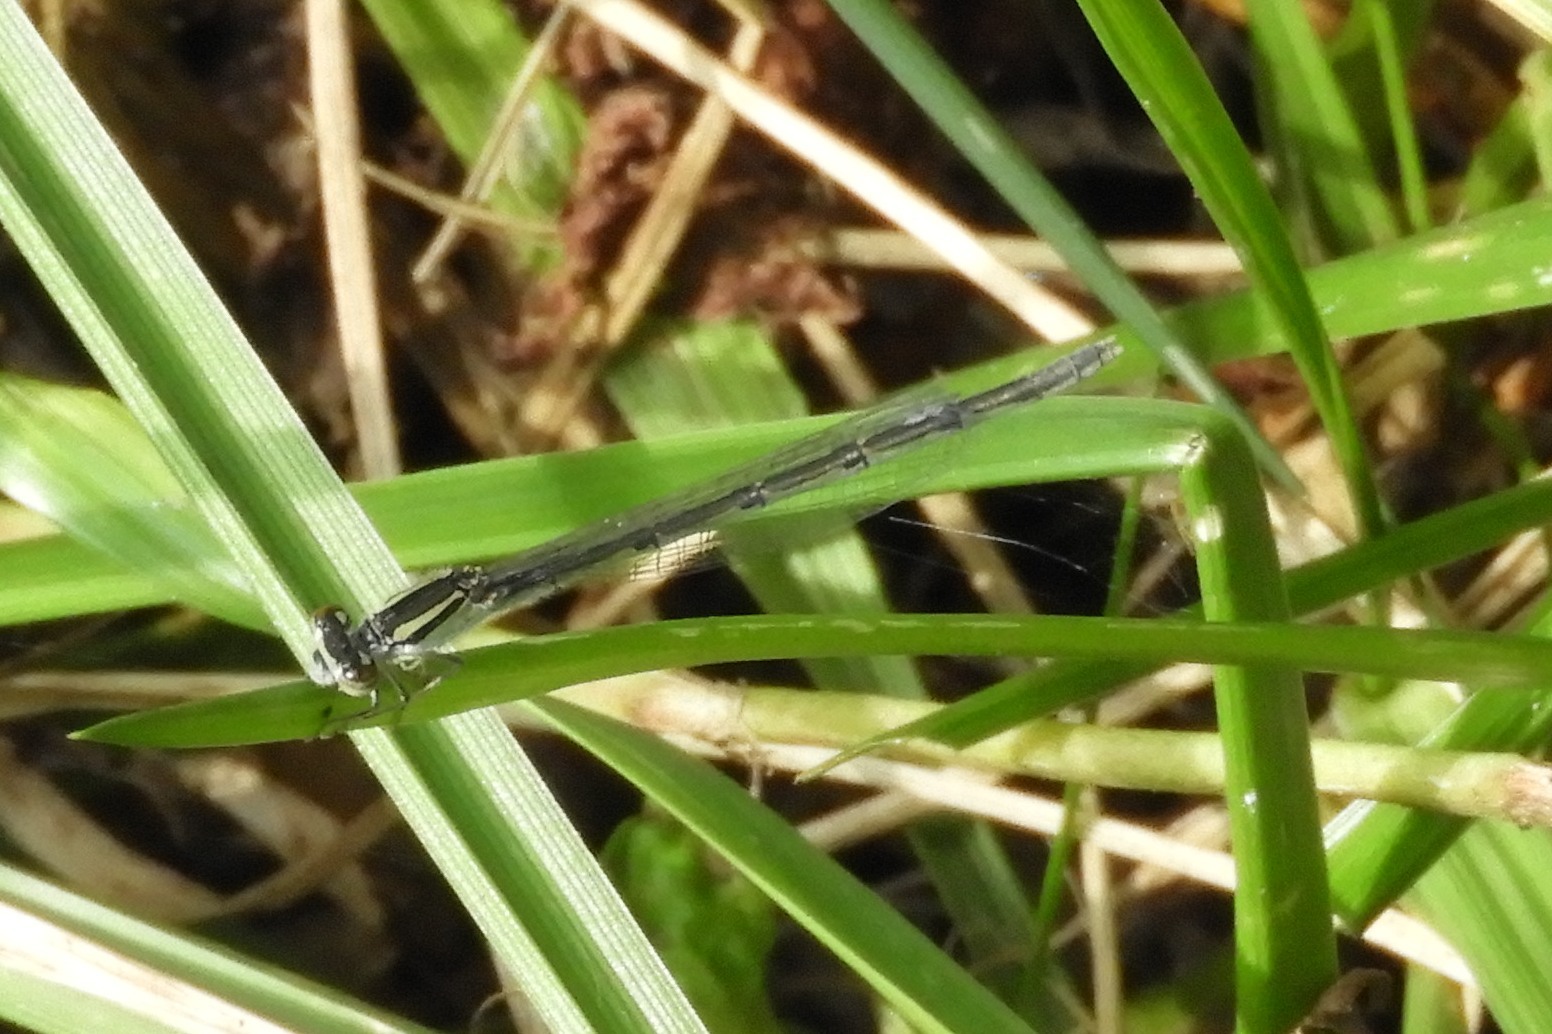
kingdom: Animalia
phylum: Arthropoda
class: Insecta
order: Odonata
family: Coenagrionidae
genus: Ischnura
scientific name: Ischnura posita
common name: Fragile forktail
